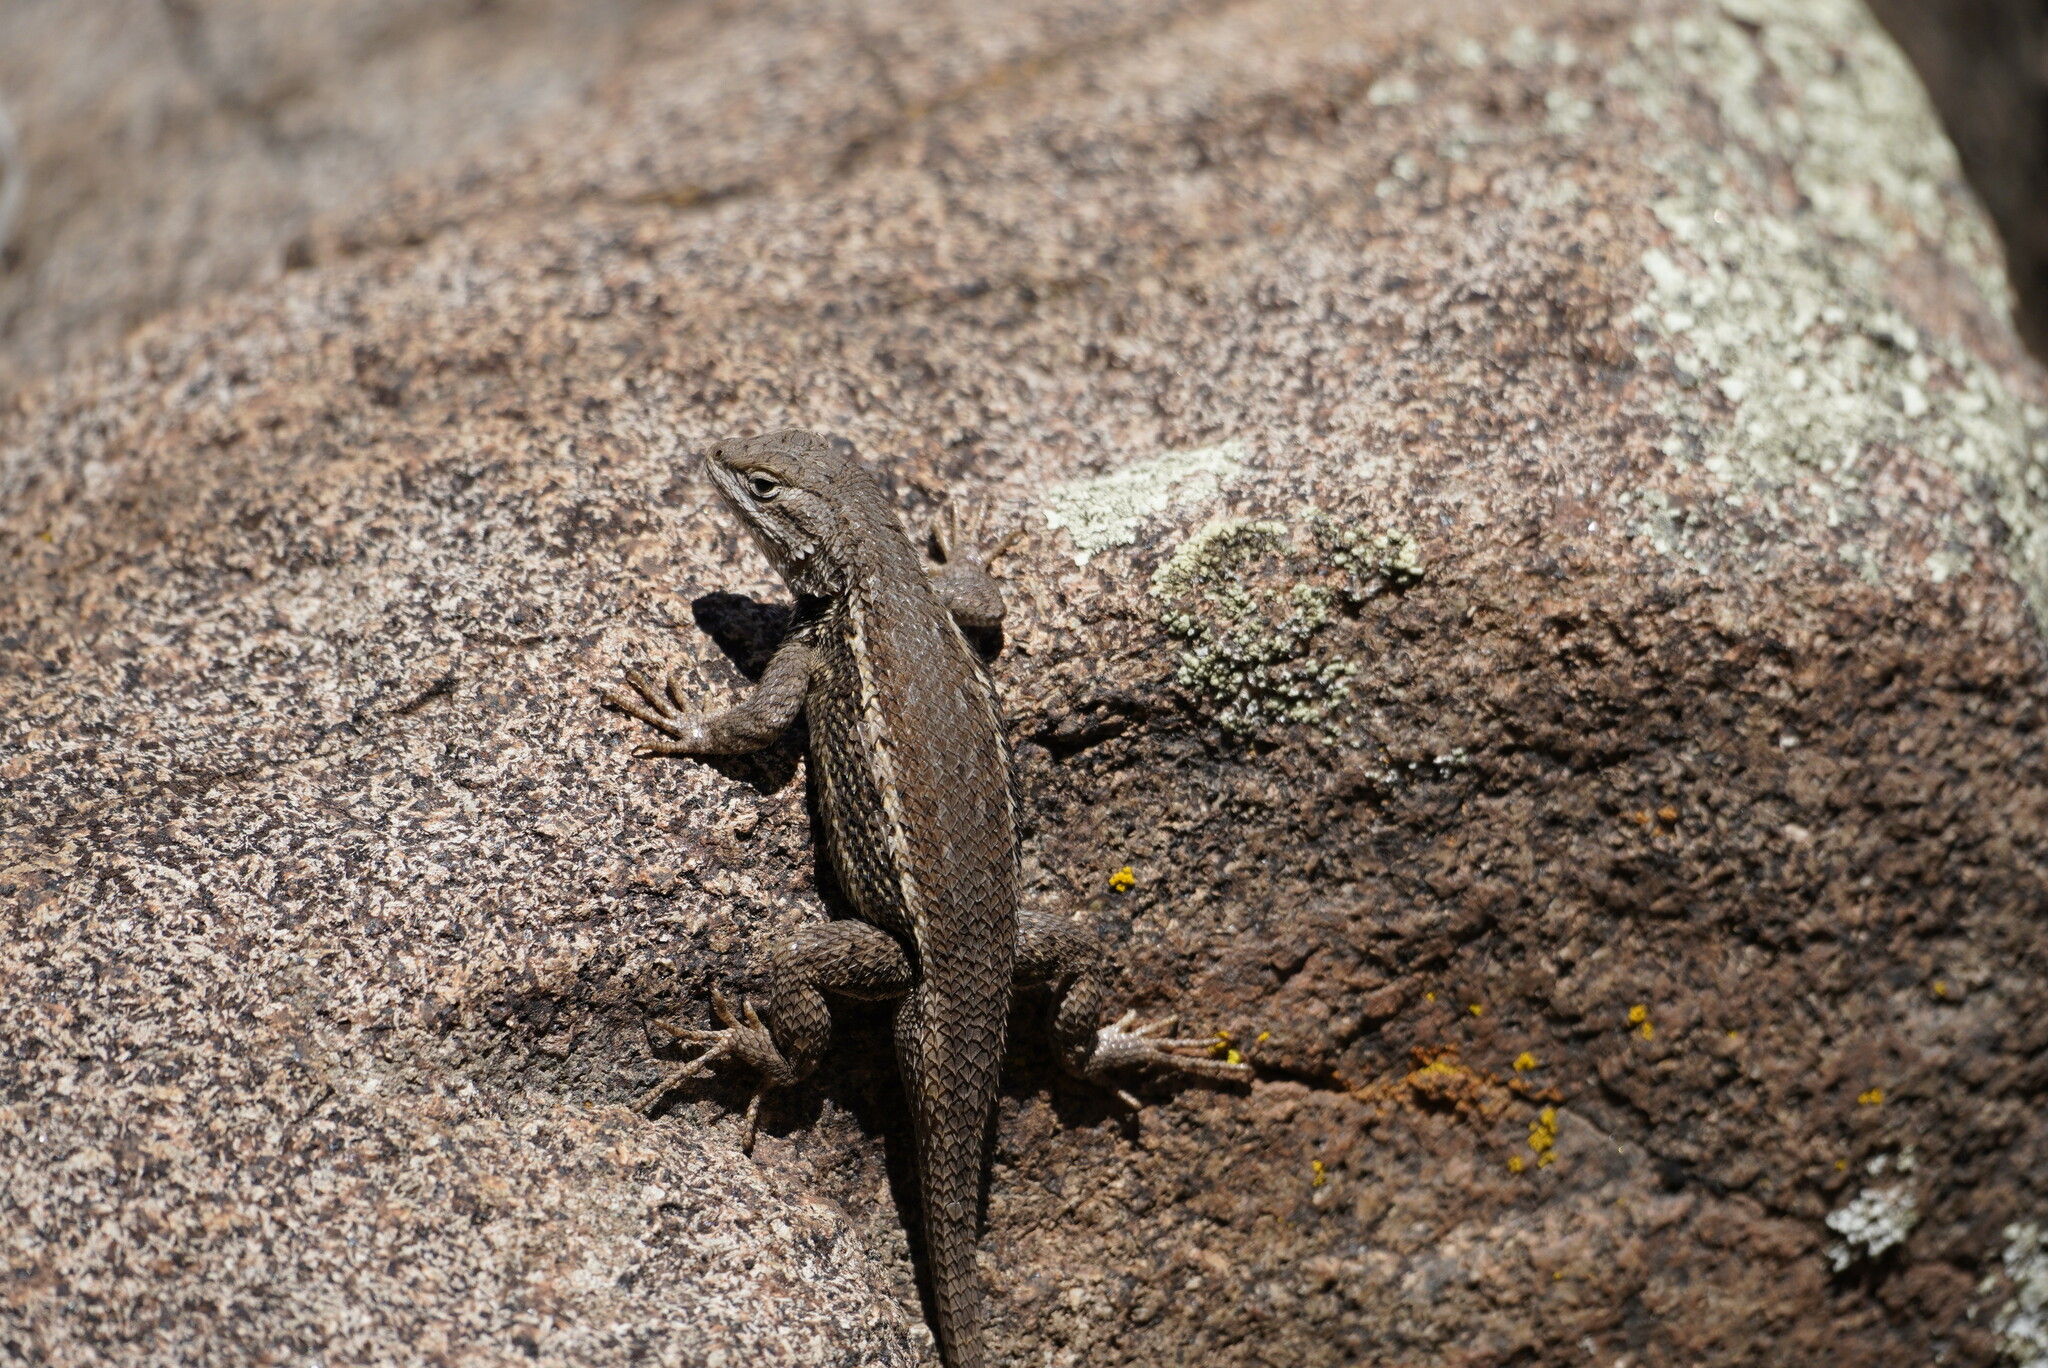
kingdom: Animalia
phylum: Chordata
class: Squamata
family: Phrynosomatidae
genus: Sceloporus
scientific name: Sceloporus tristichus
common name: Plateau fence lizard
